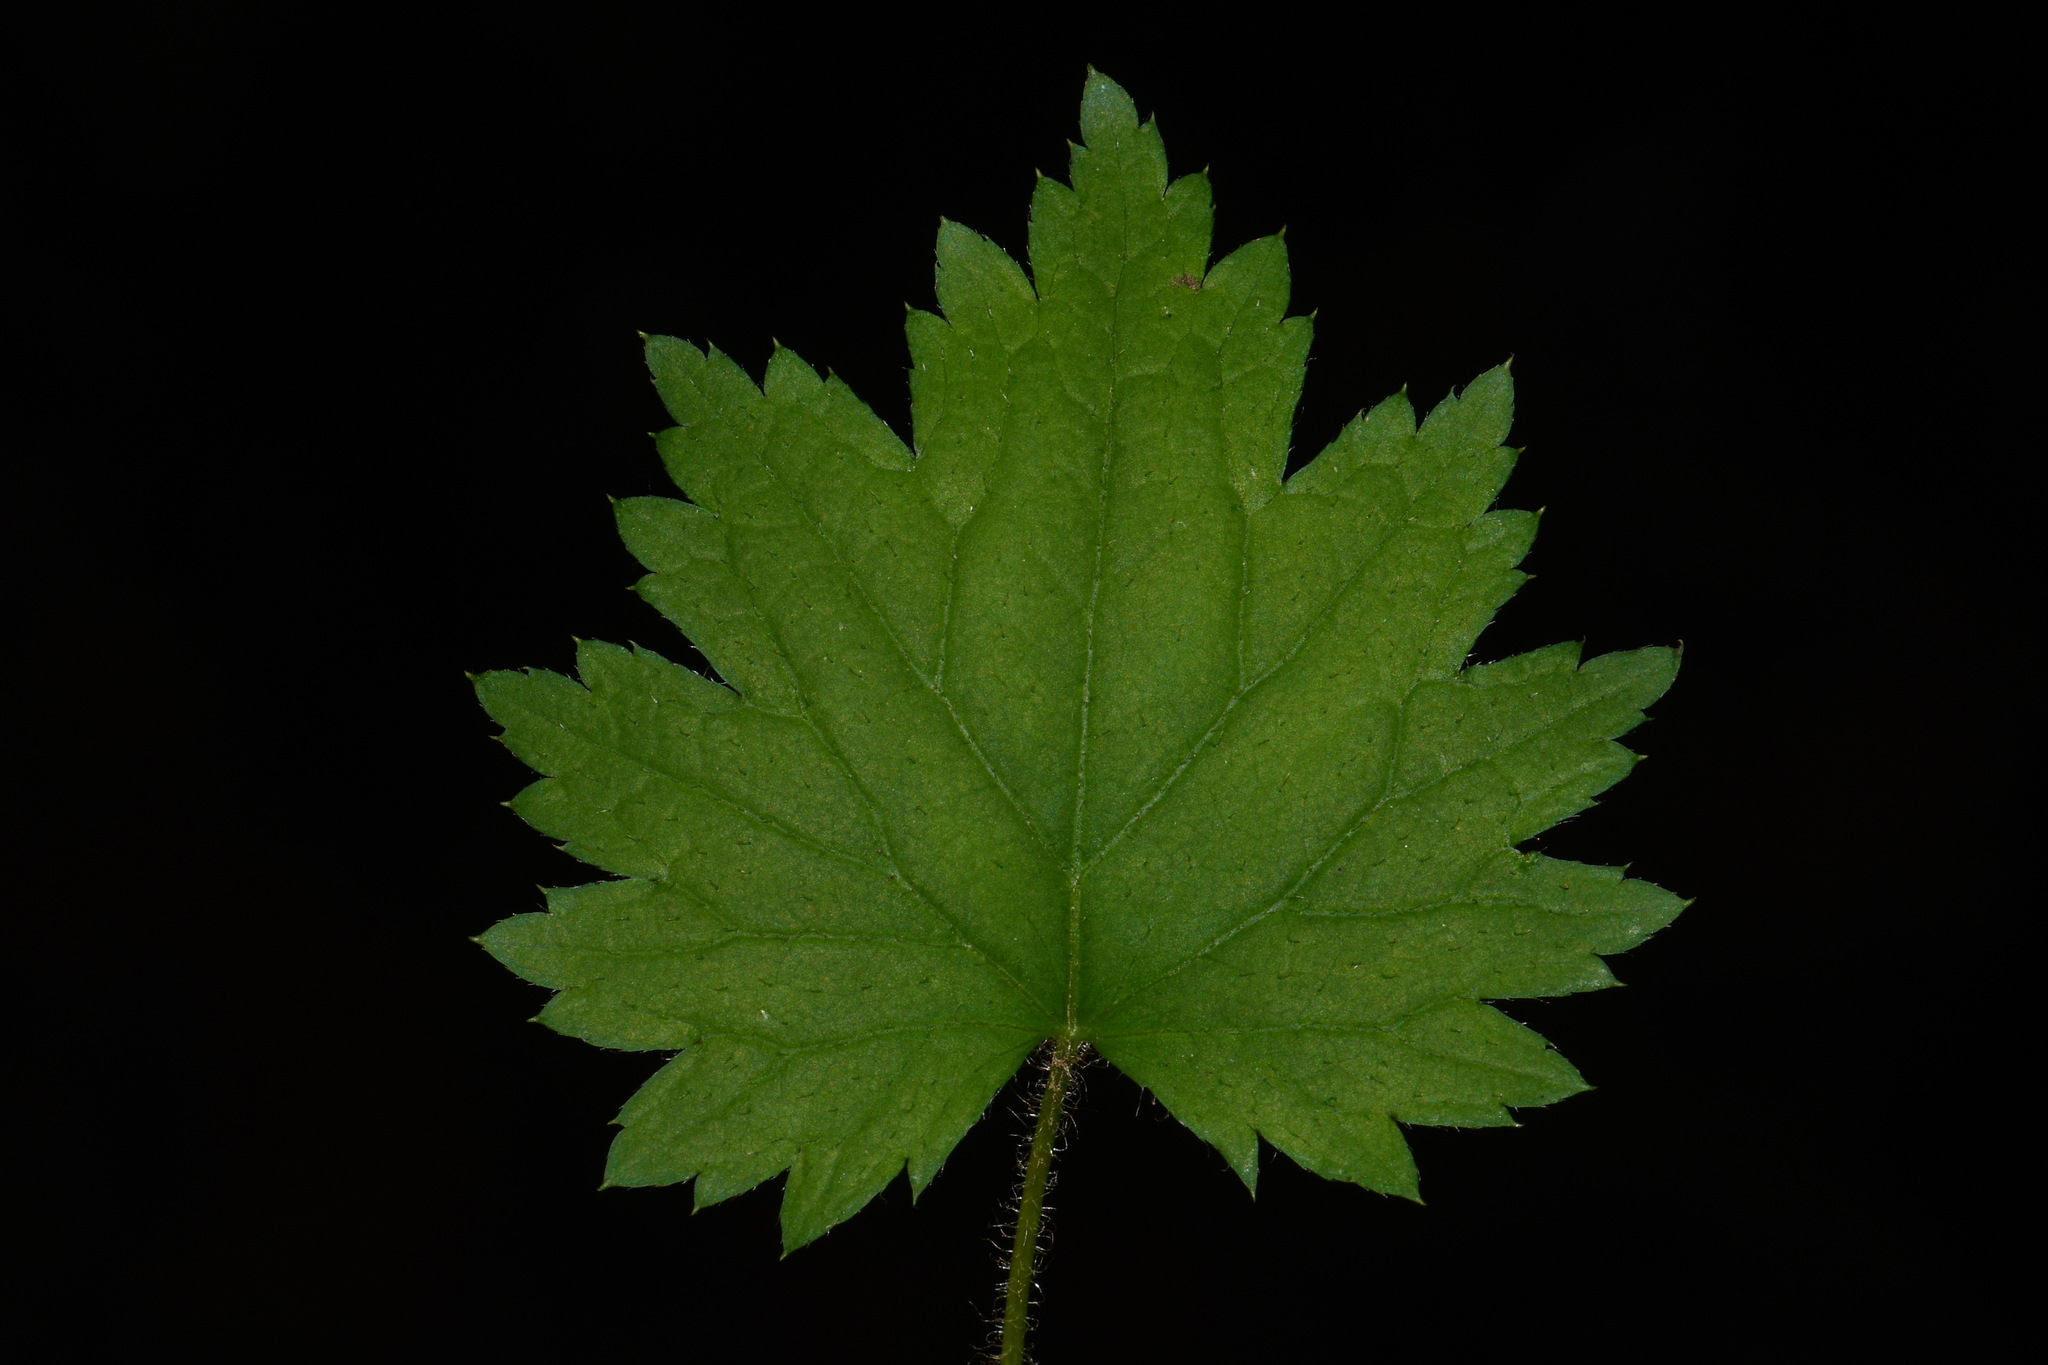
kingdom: Plantae
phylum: Tracheophyta
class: Magnoliopsida
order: Saxifragales
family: Saxifragaceae
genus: Boykinia
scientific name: Boykinia occidentalis
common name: Coast boykinia
